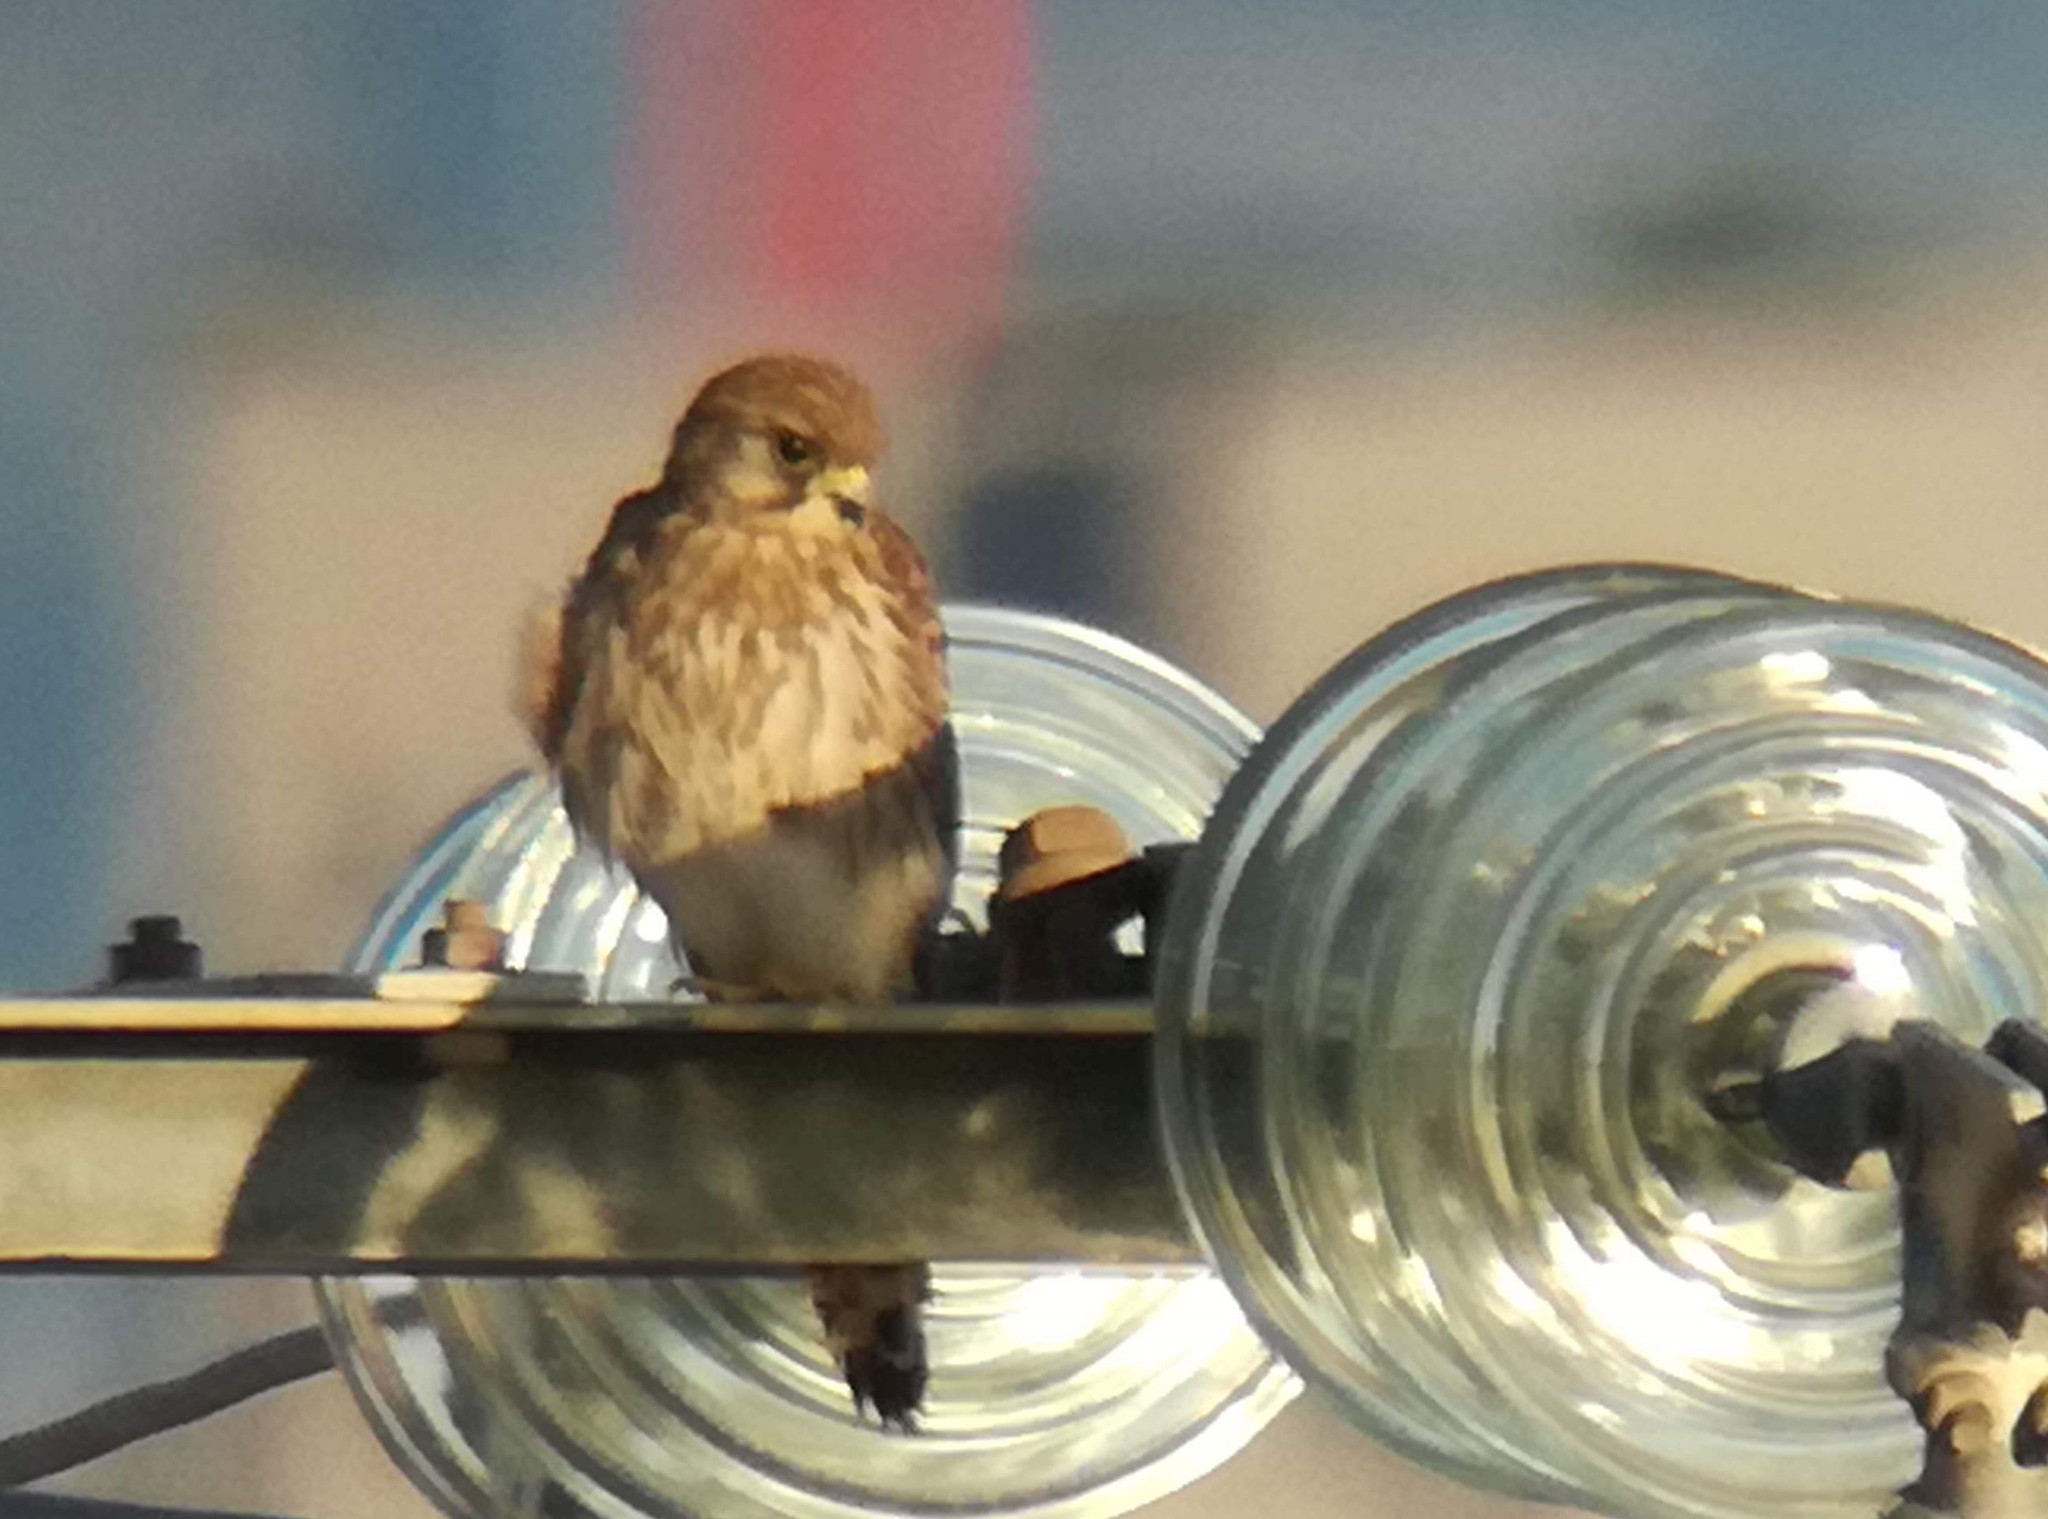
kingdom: Animalia
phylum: Chordata
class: Aves
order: Falconiformes
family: Falconidae
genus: Falco
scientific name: Falco tinnunculus
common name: Common kestrel
